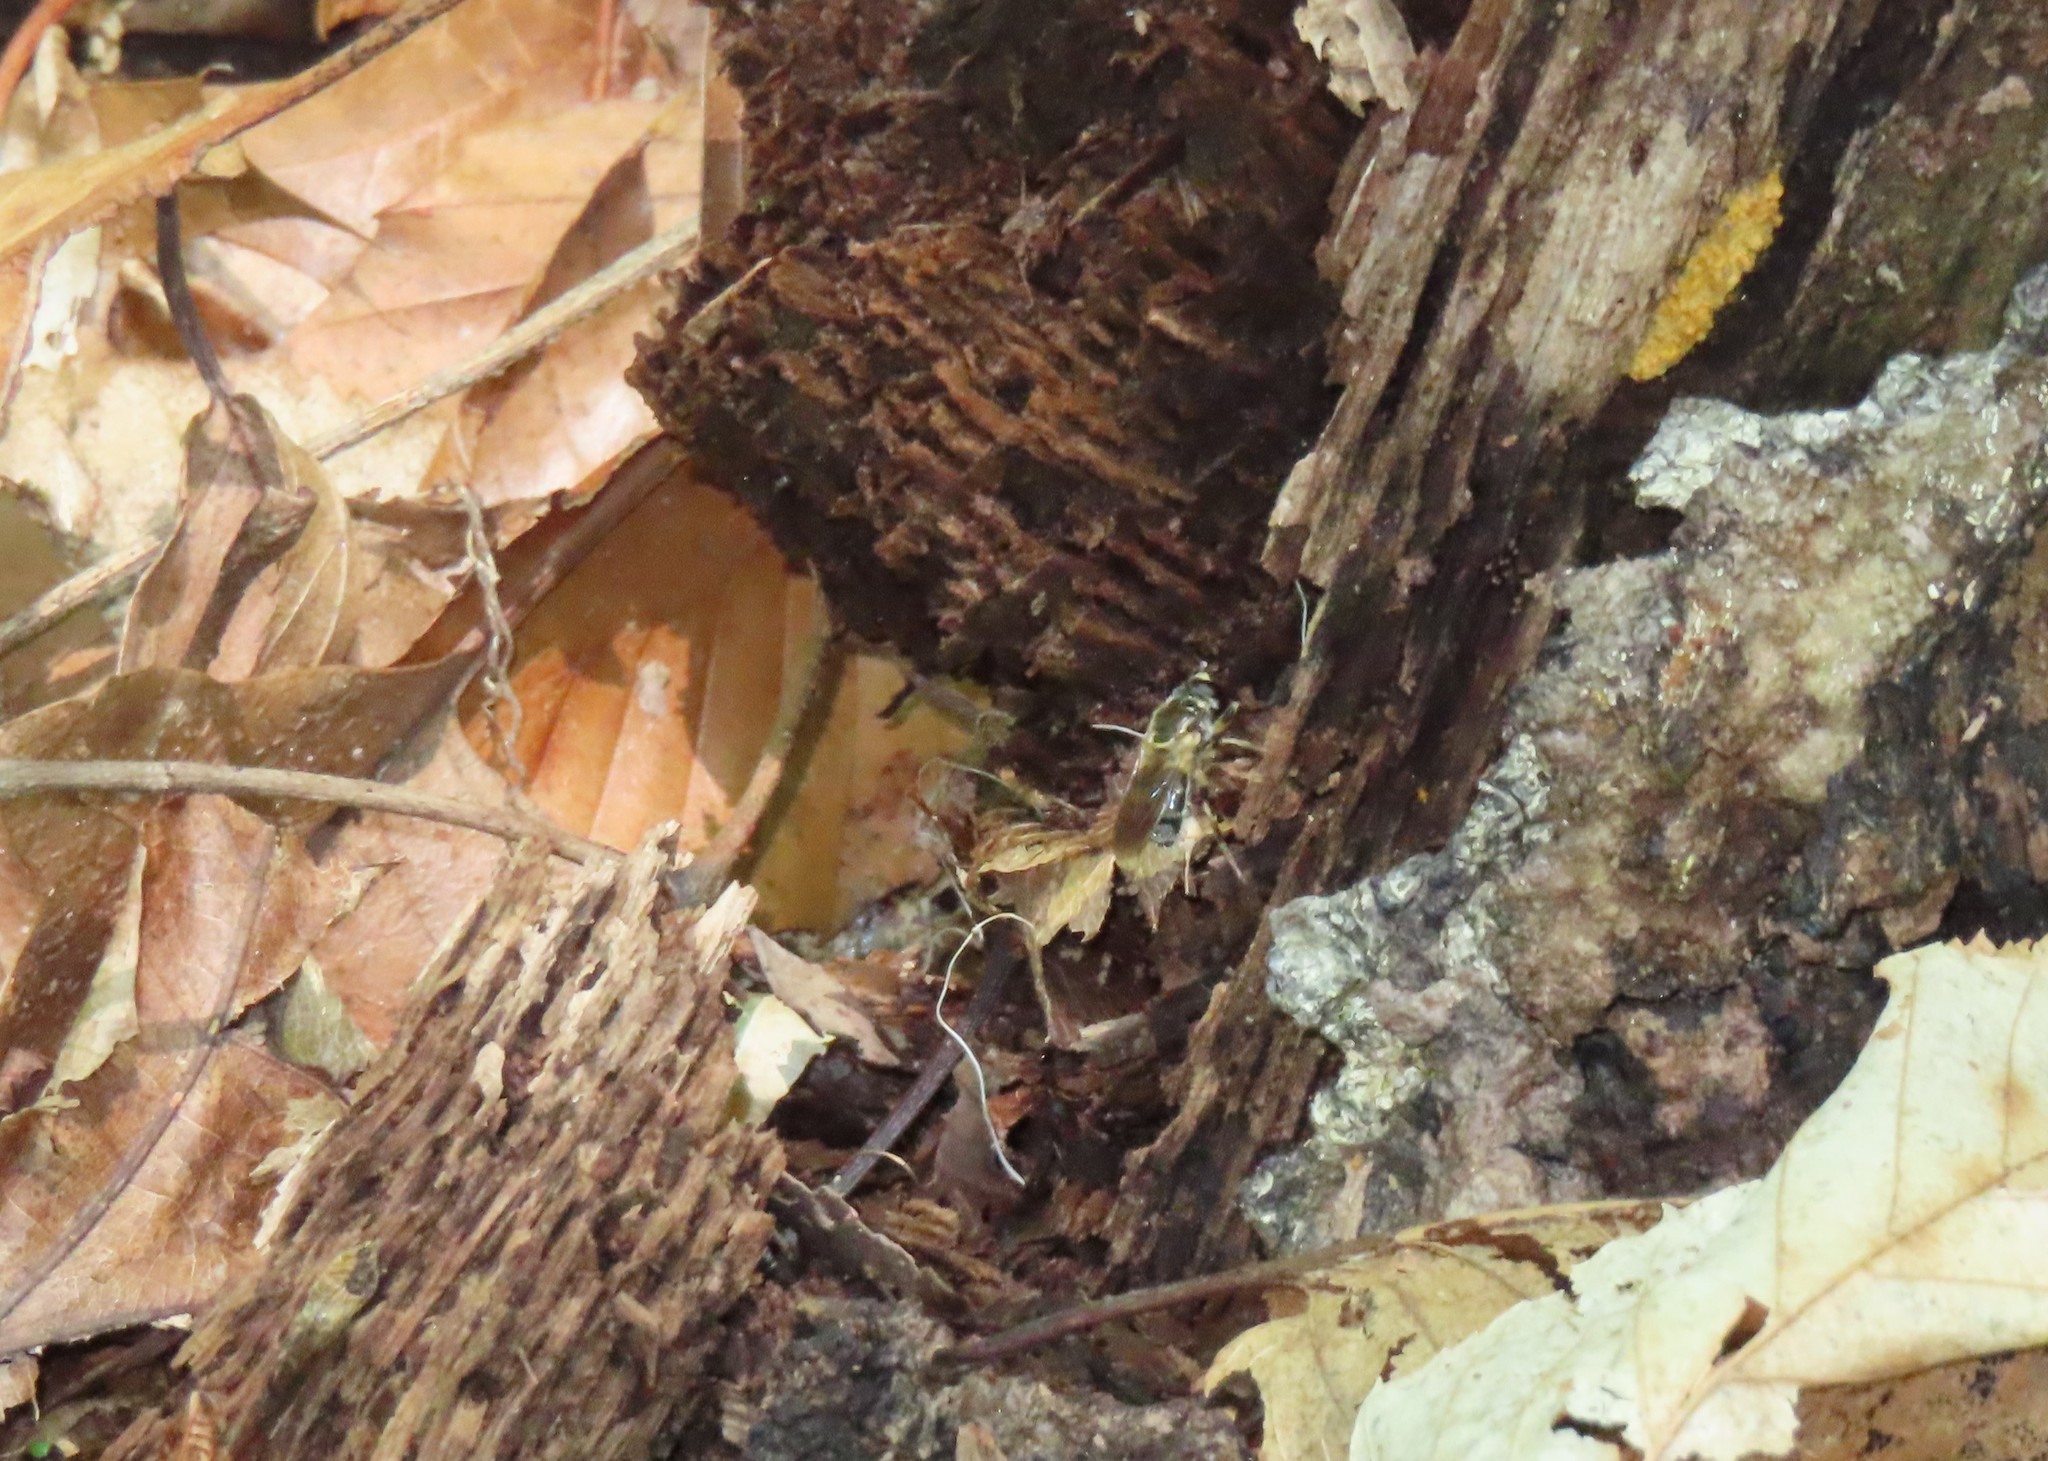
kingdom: Animalia
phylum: Arthropoda
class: Insecta
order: Diptera
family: Syrphidae
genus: Blera
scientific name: Blera pictipes
